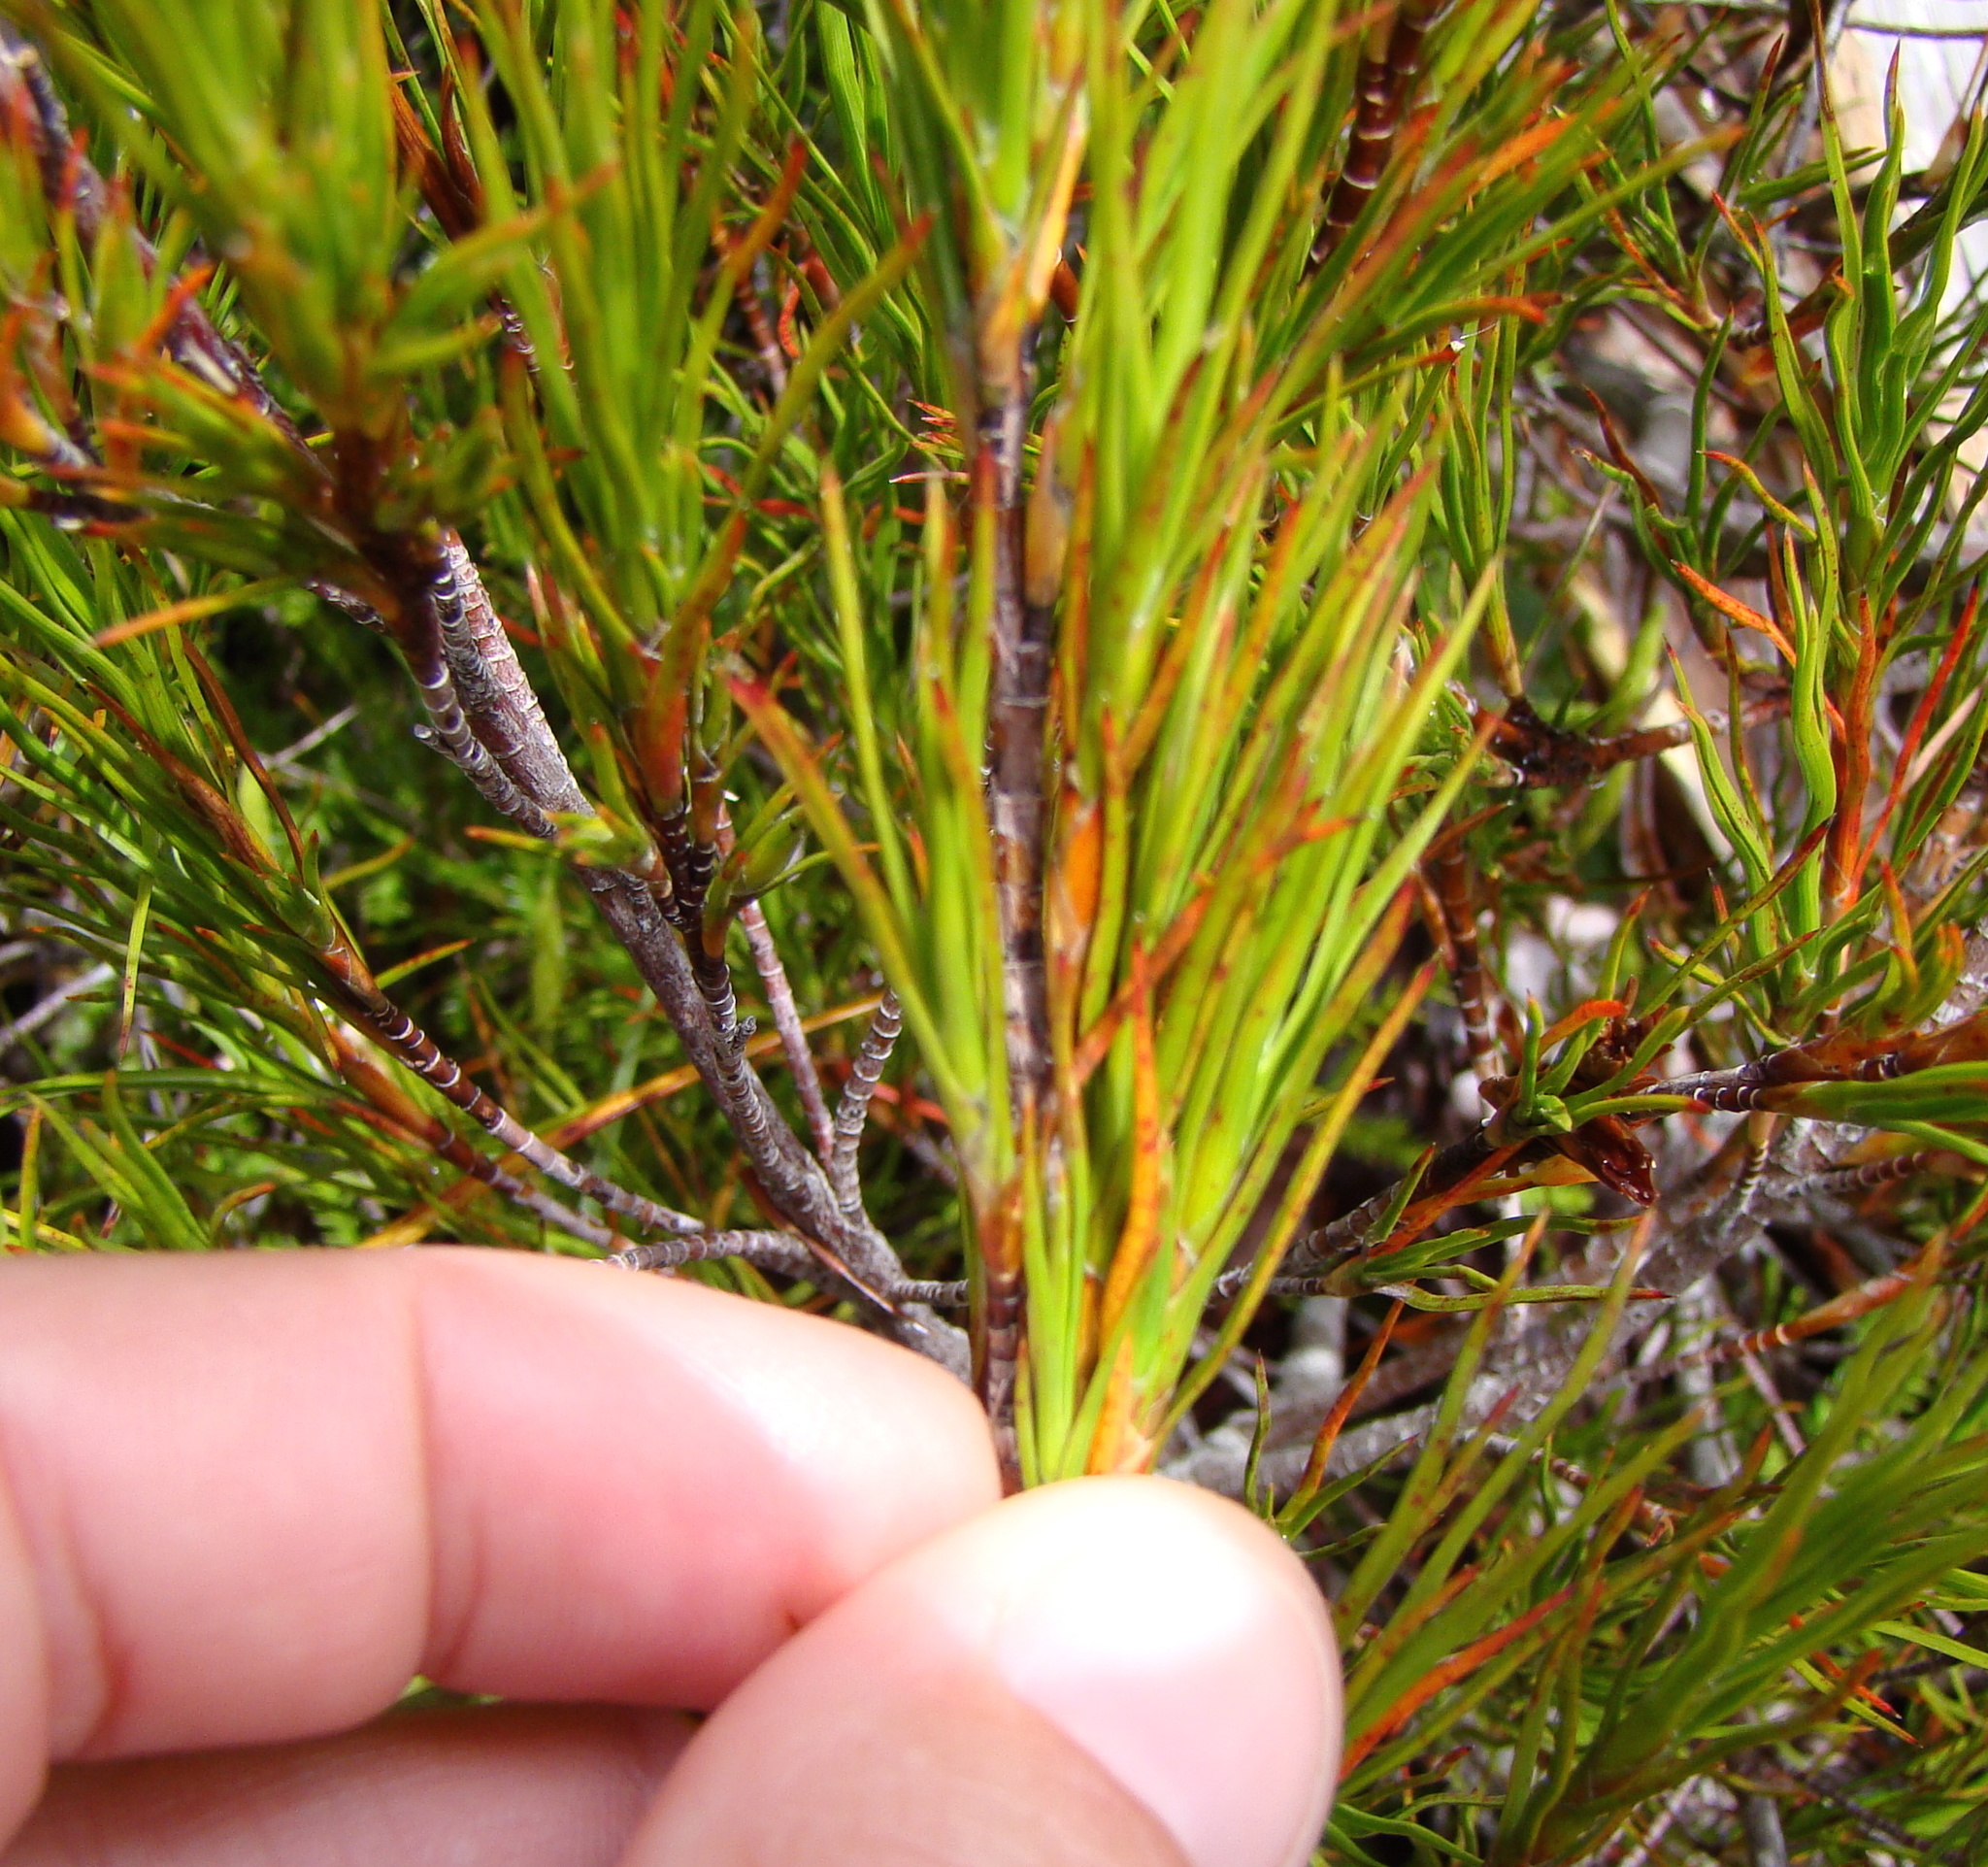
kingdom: Plantae
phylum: Tracheophyta
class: Magnoliopsida
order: Ericales
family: Ericaceae
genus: Dracophyllum
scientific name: Dracophyllum rosmarinifolium
